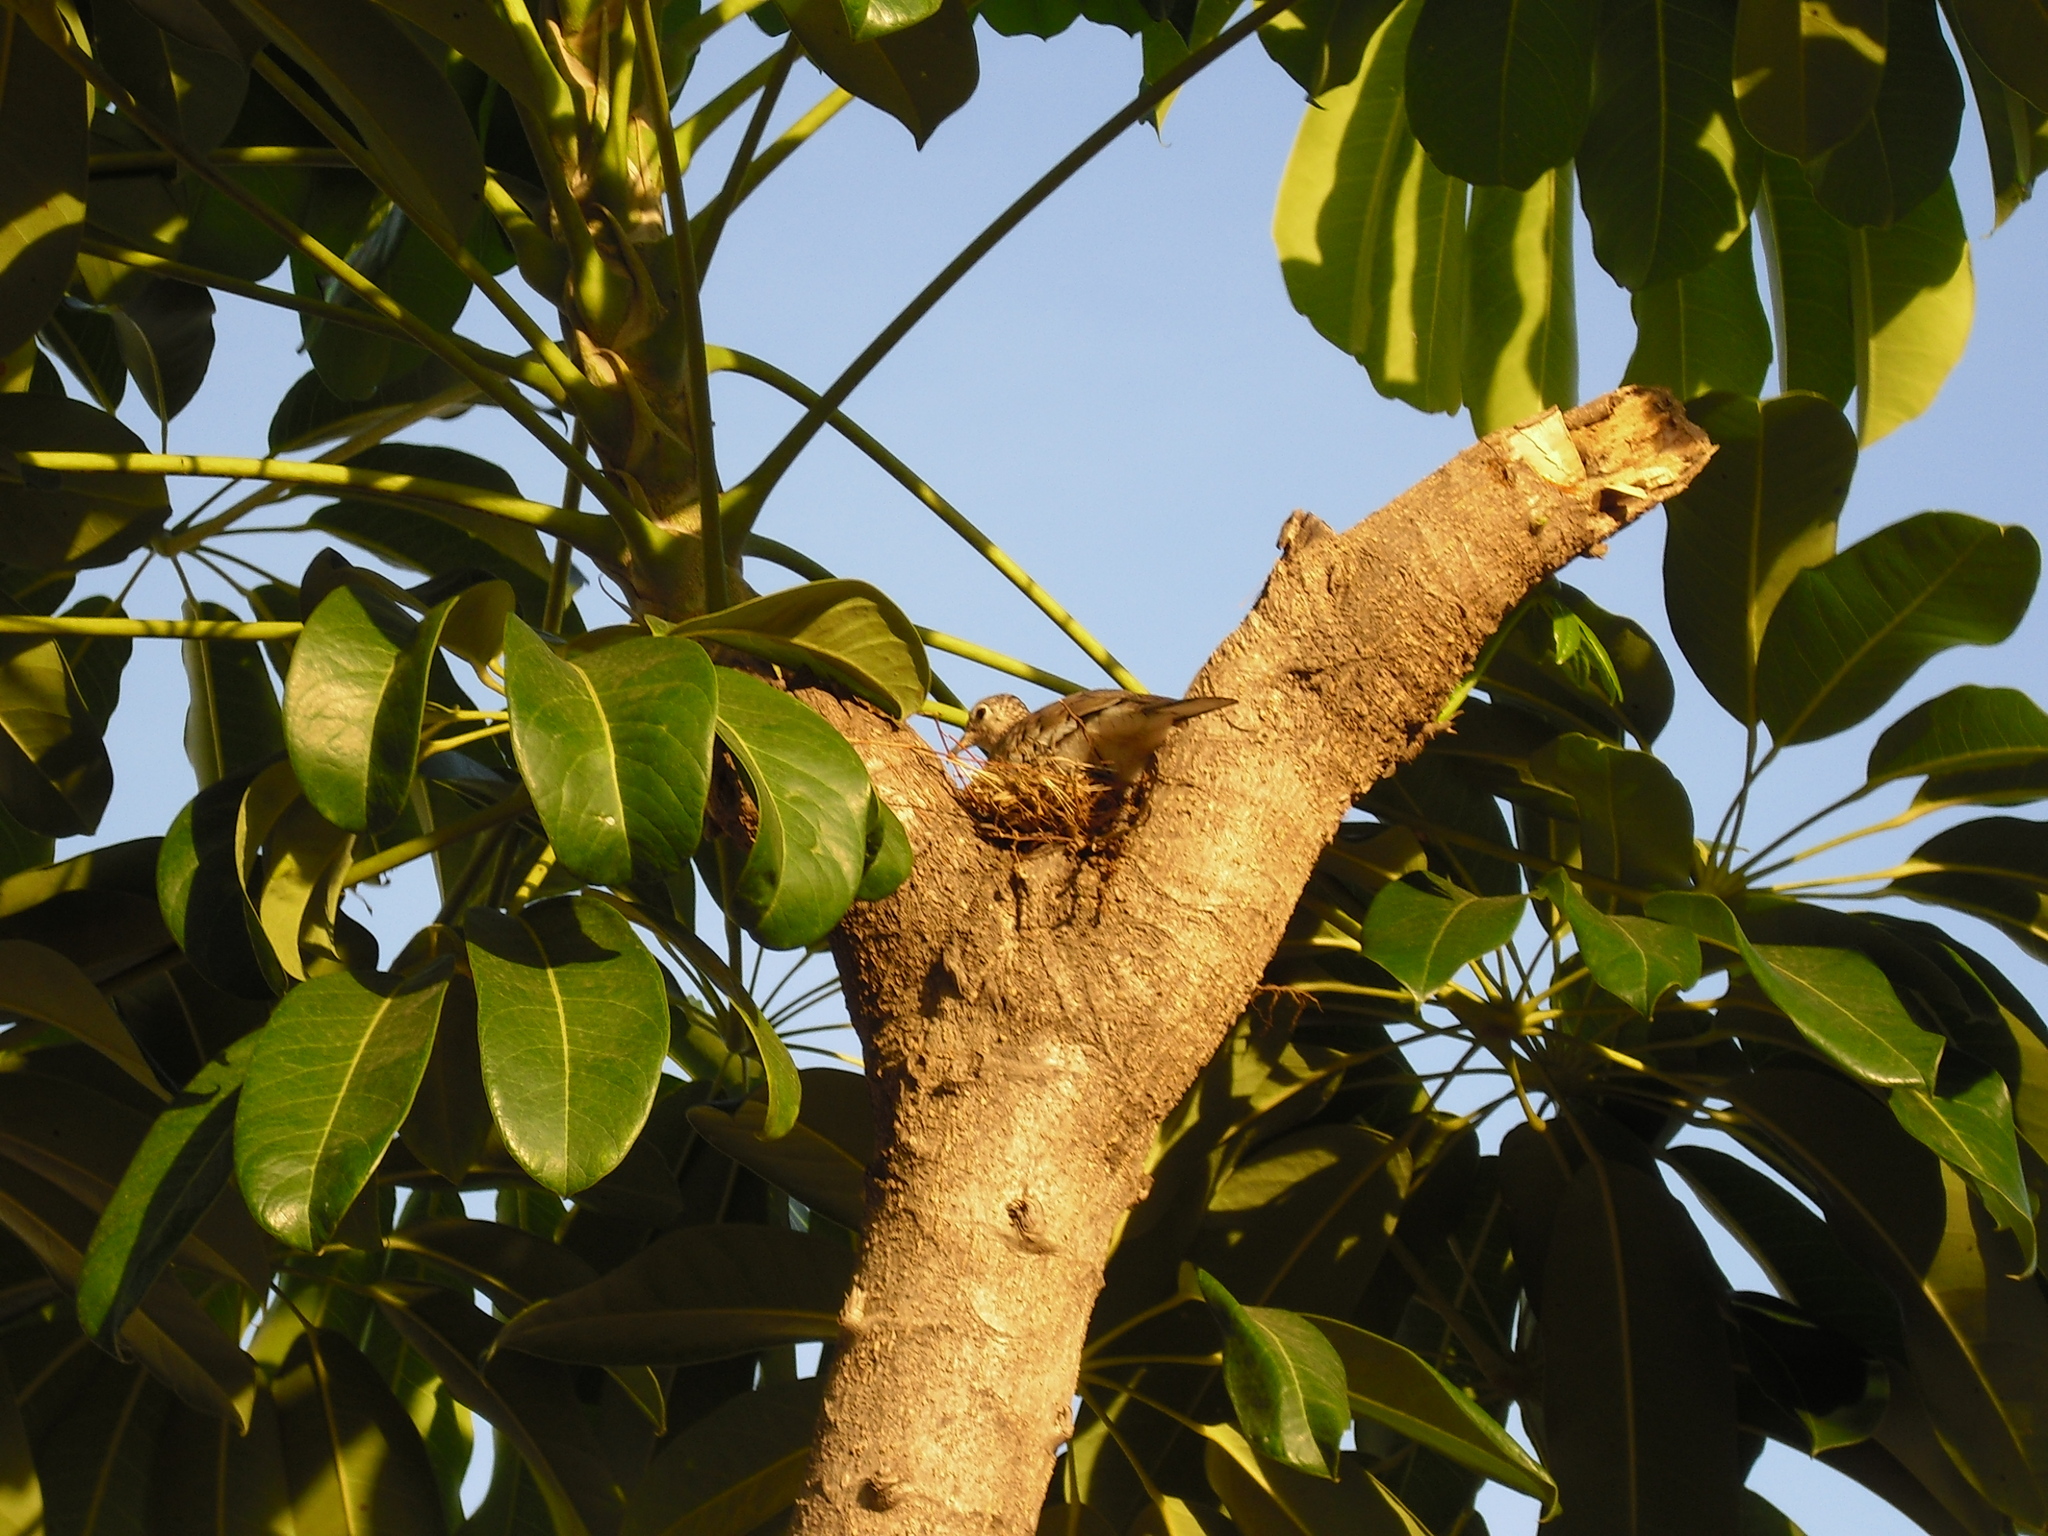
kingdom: Animalia
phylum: Chordata
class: Aves
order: Columbiformes
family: Columbidae
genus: Columbina
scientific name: Columbina squammata
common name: Scaled dove
